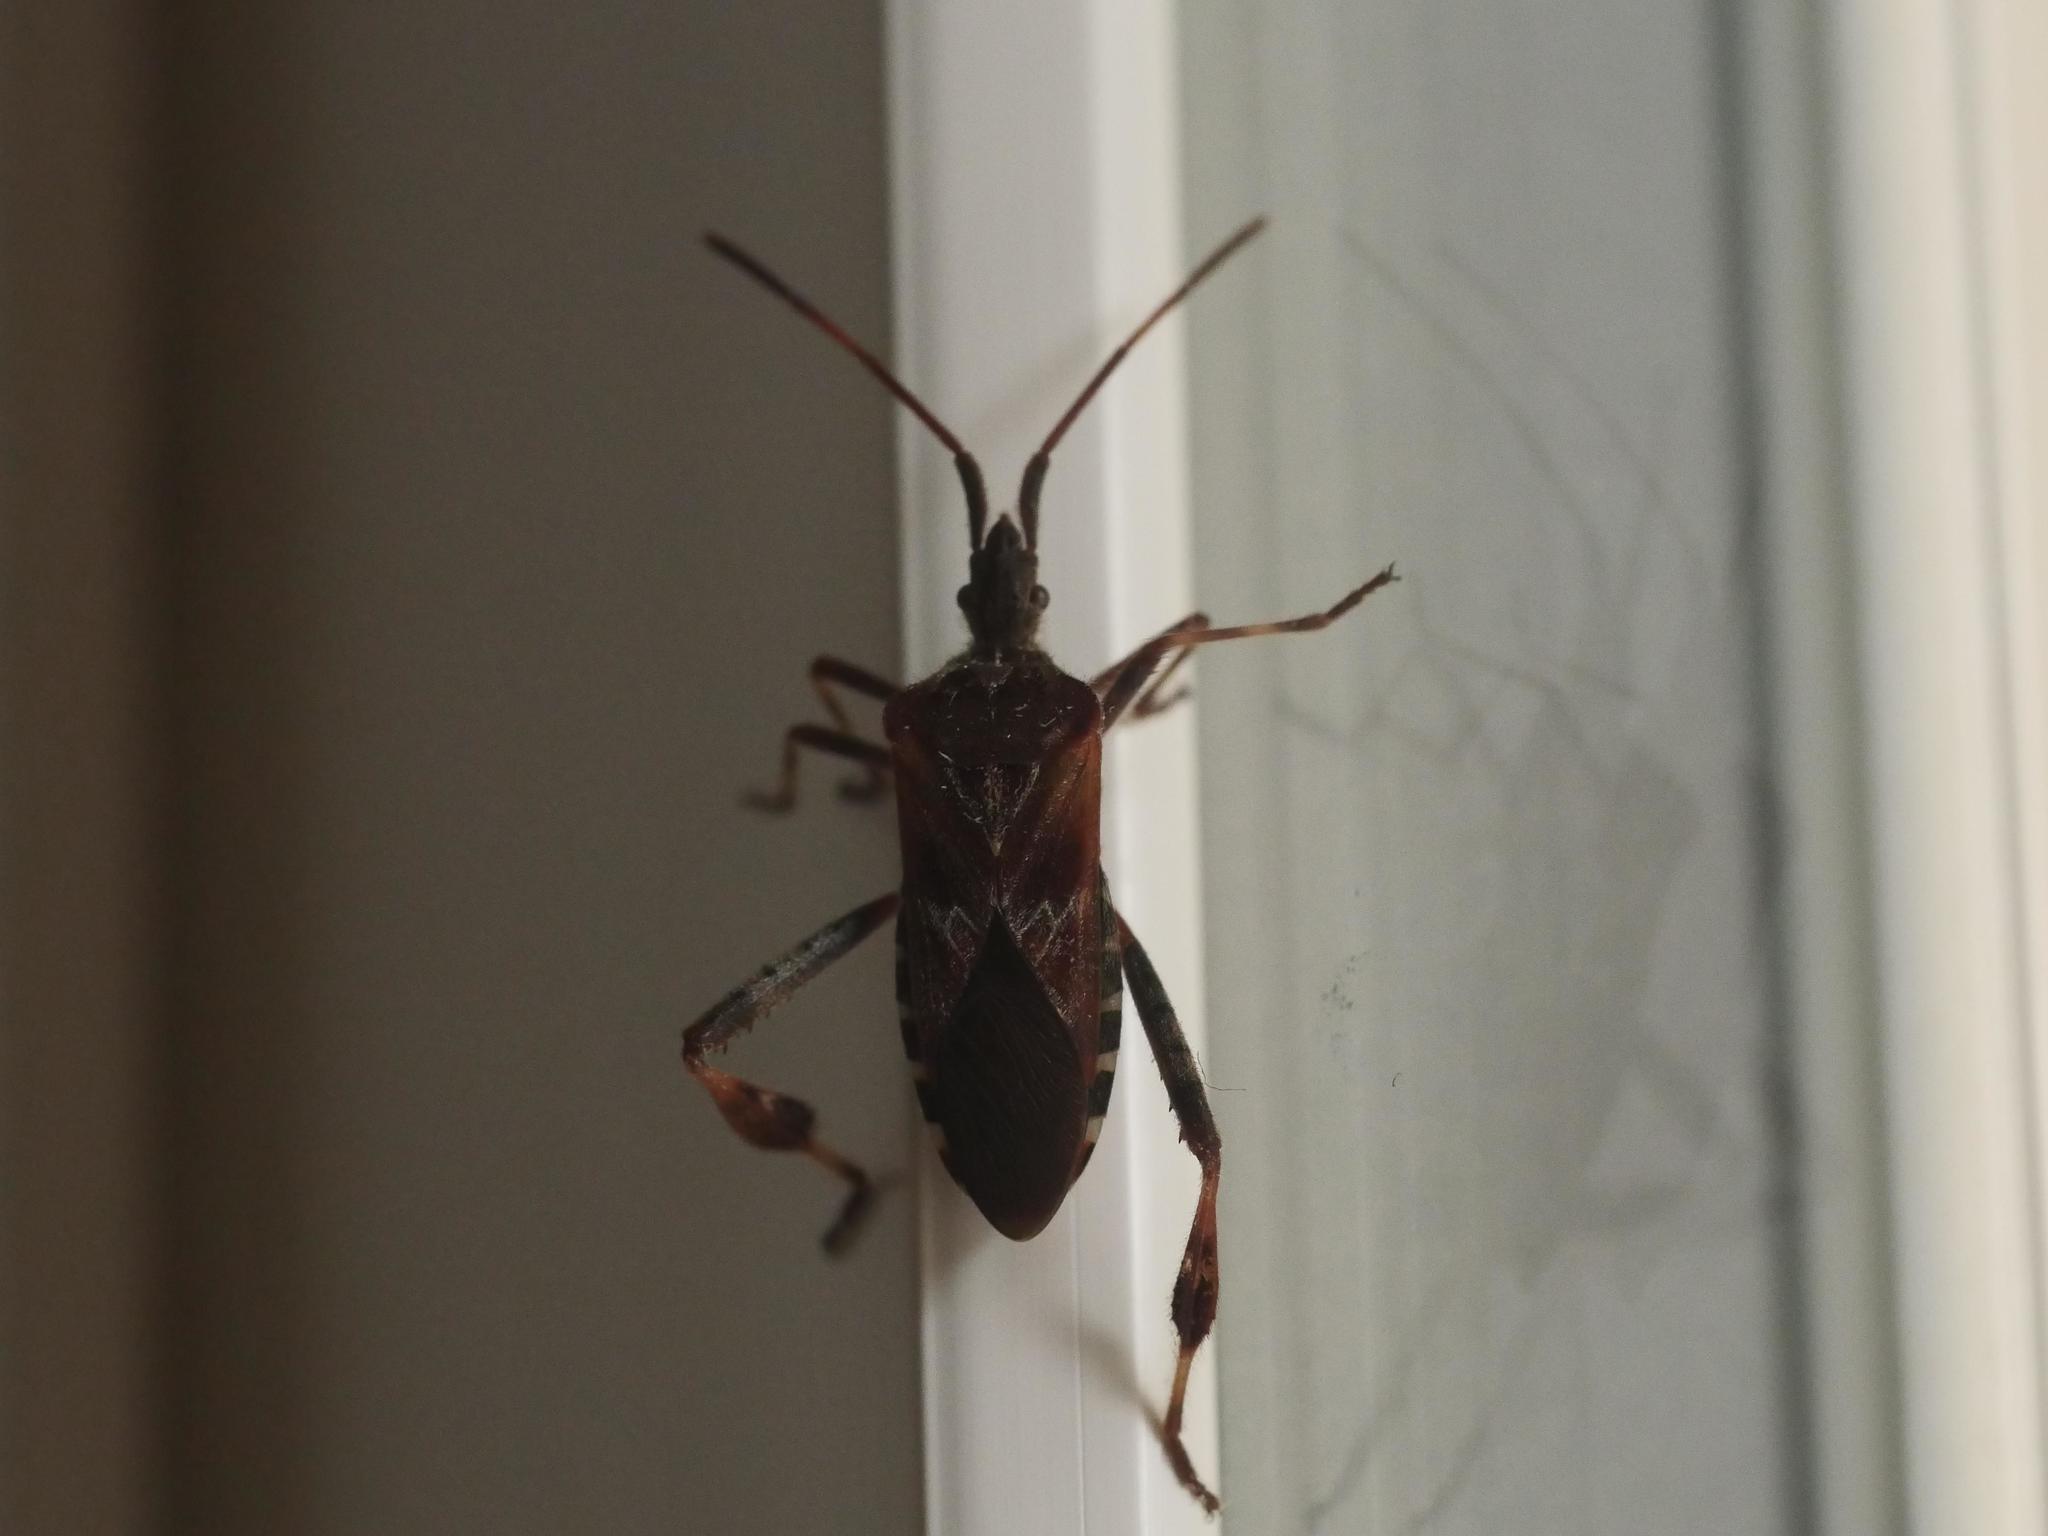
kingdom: Animalia
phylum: Arthropoda
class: Insecta
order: Hemiptera
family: Coreidae
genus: Leptoglossus
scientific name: Leptoglossus occidentalis
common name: Western conifer-seed bug
